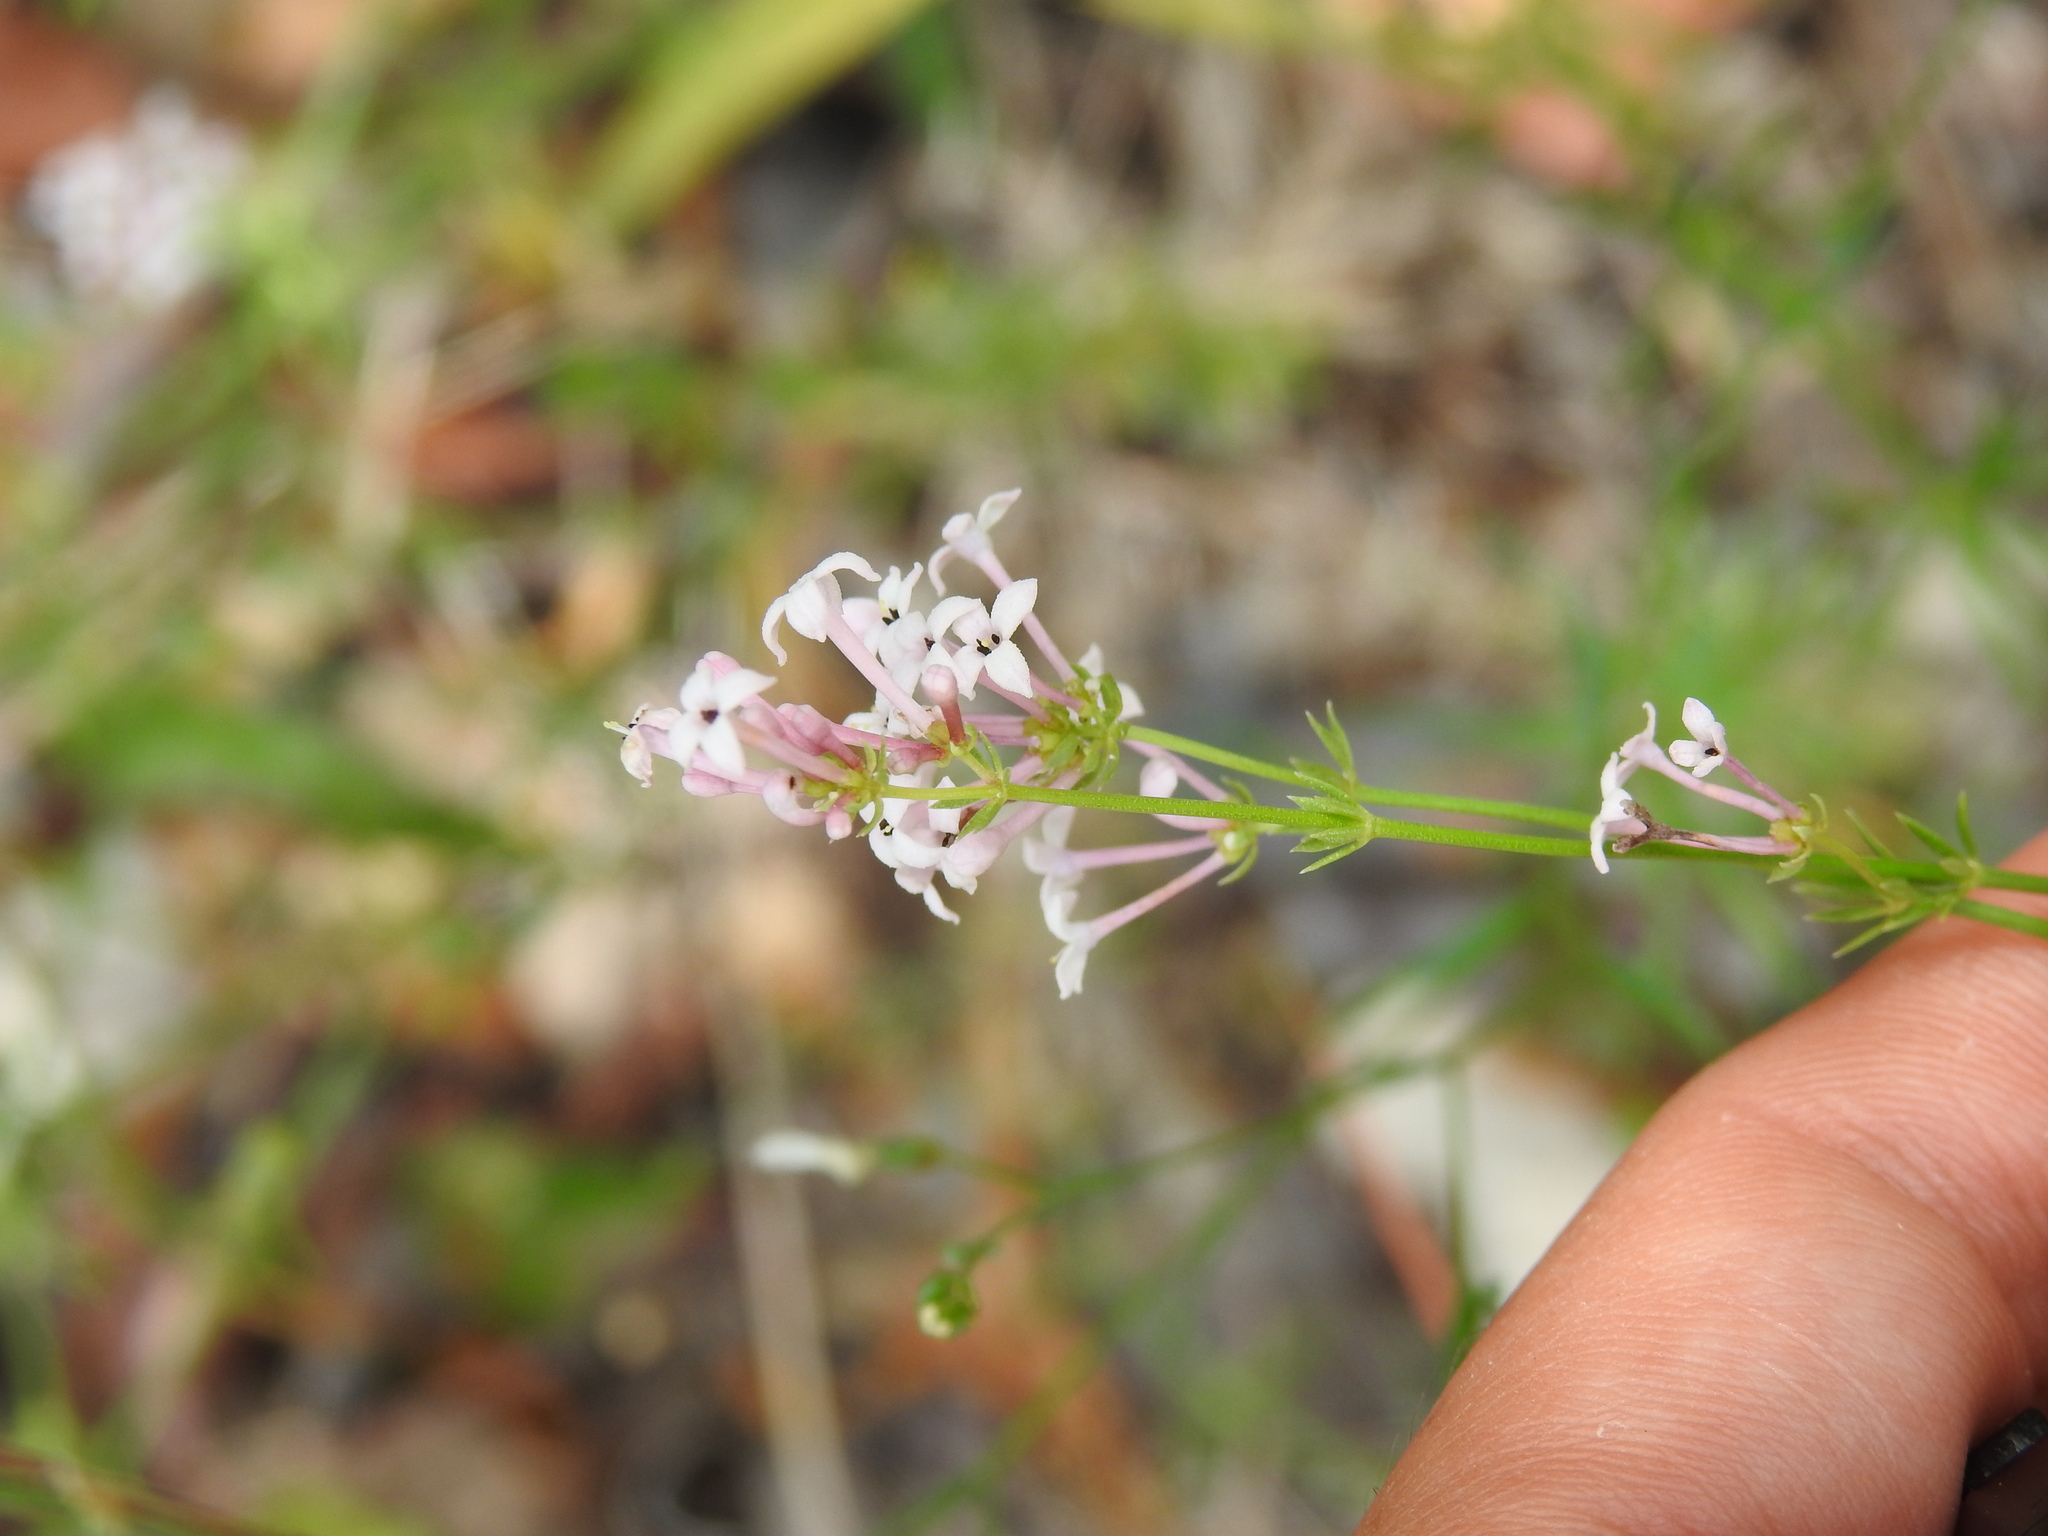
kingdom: Plantae
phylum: Tracheophyta
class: Magnoliopsida
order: Gentianales
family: Rubiaceae
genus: Hexaphylla
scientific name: Hexaphylla hirsuta
